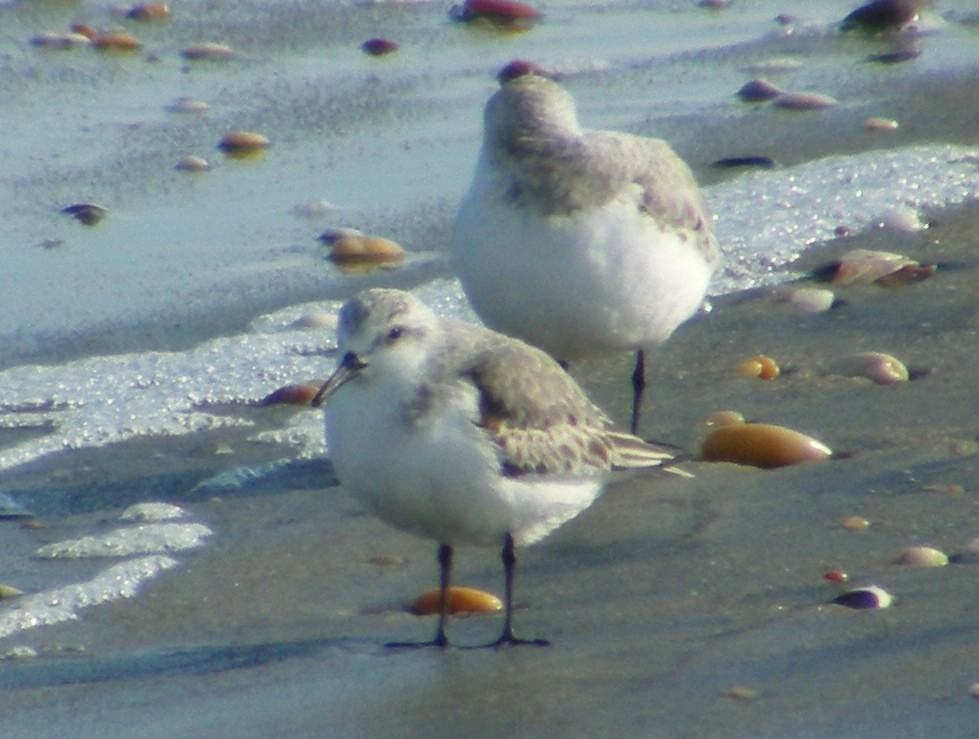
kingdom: Animalia
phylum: Chordata
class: Aves
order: Charadriiformes
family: Scolopacidae
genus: Calidris
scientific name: Calidris alba
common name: Sanderling
